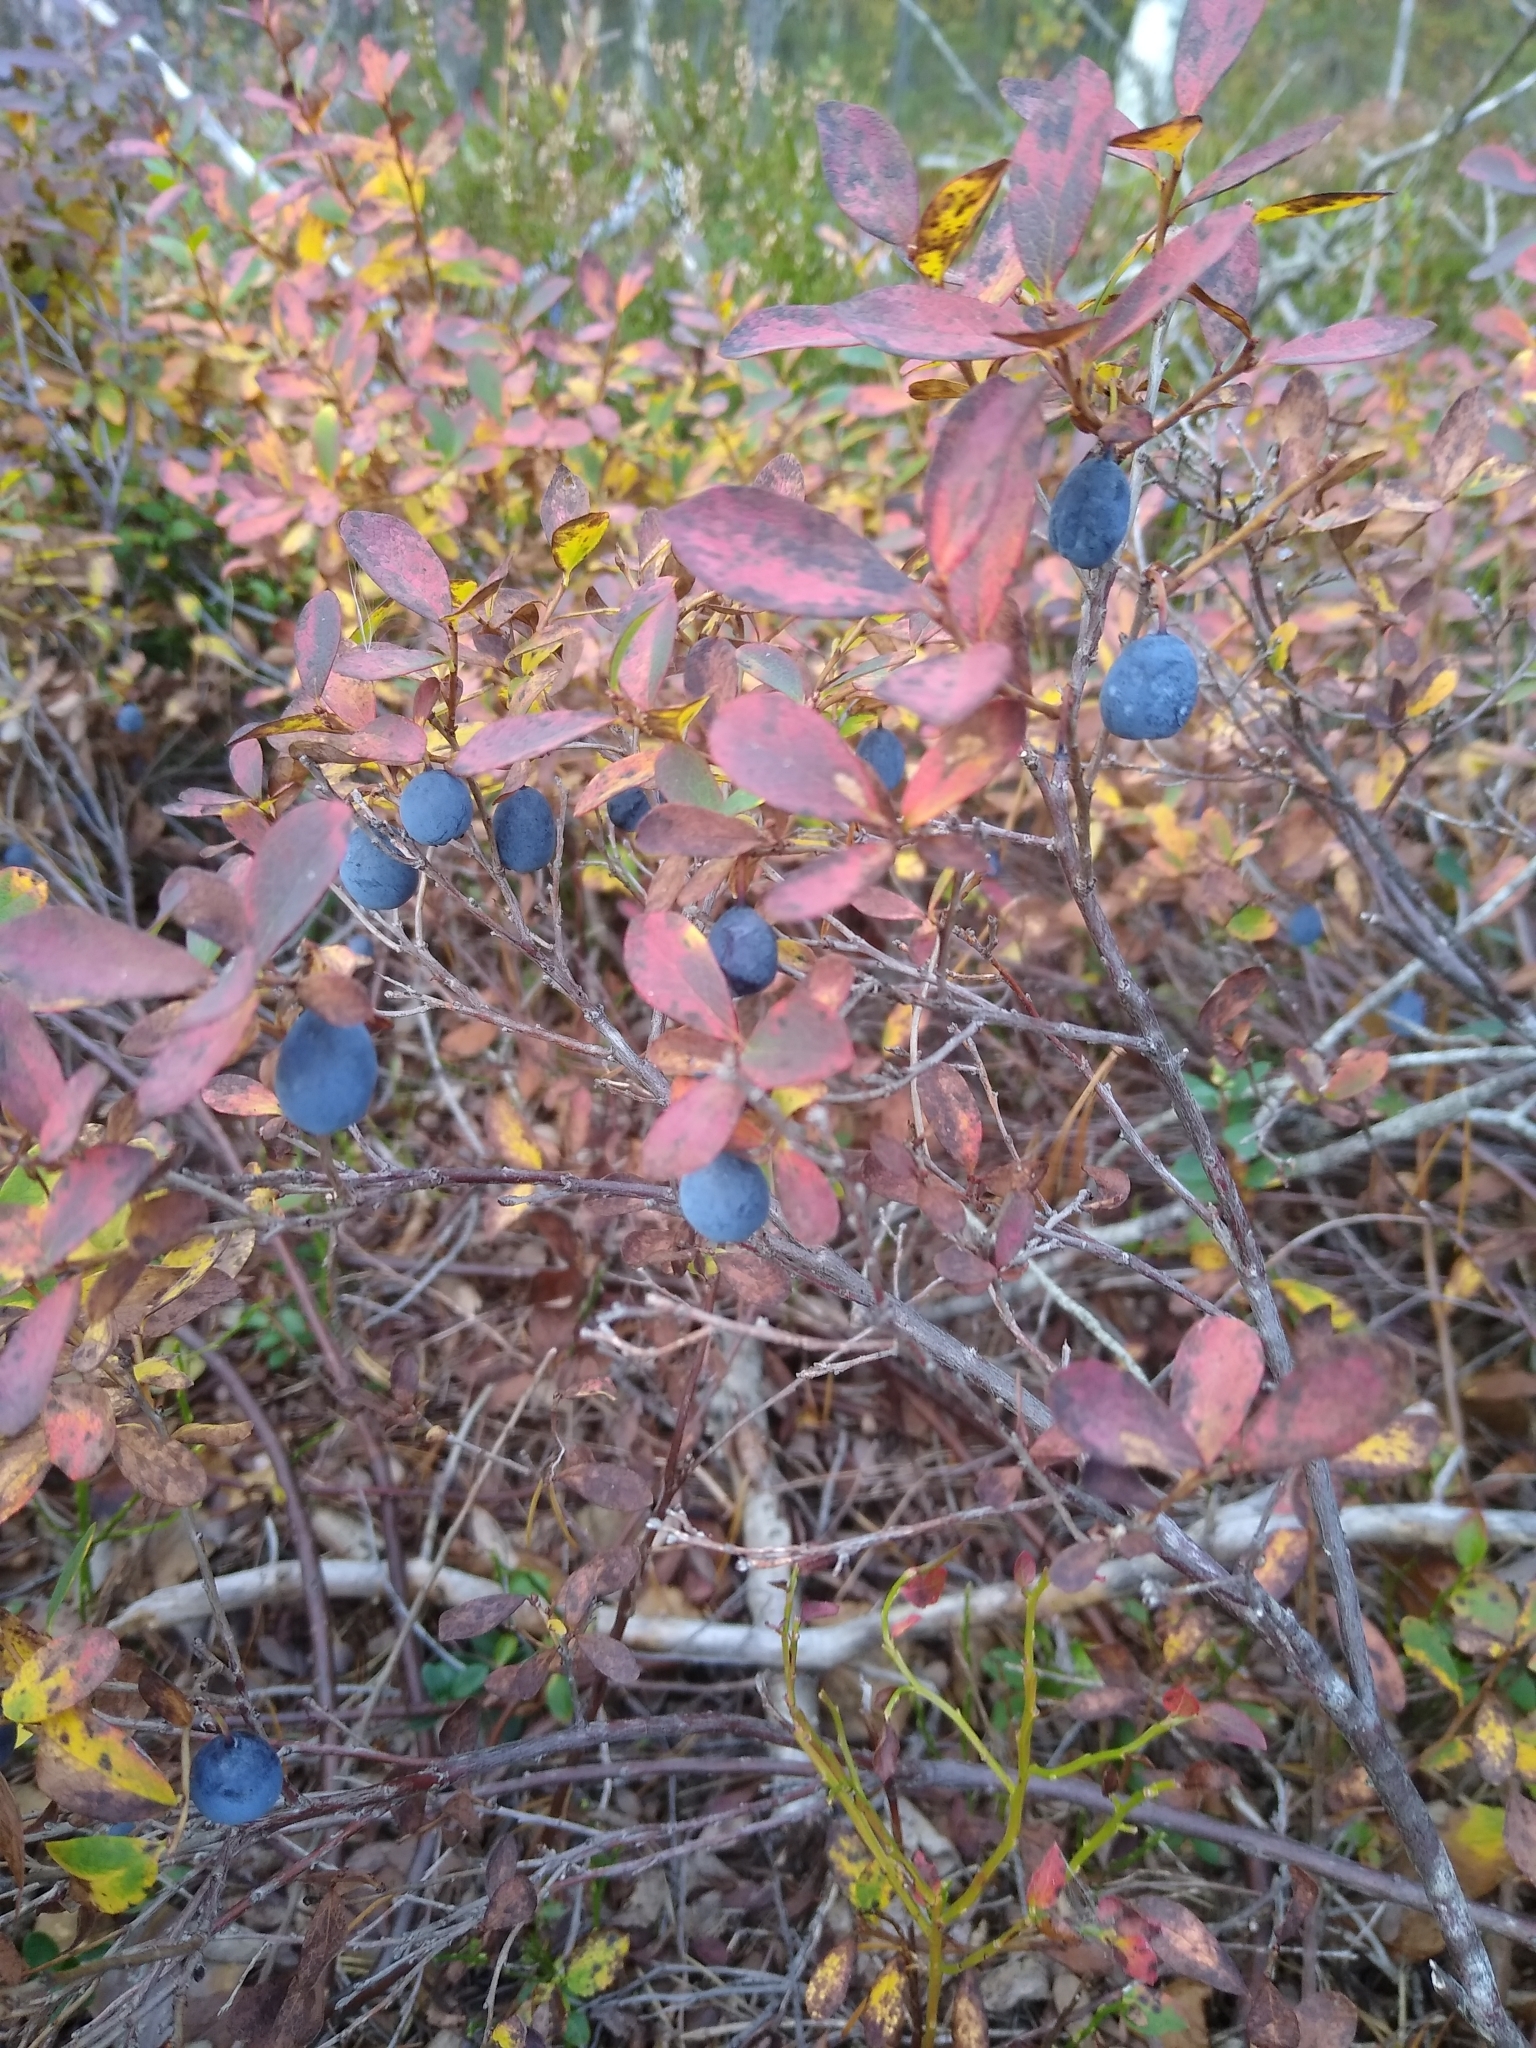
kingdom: Plantae
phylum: Tracheophyta
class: Magnoliopsida
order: Ericales
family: Ericaceae
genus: Vaccinium
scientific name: Vaccinium uliginosum
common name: Bog bilberry
